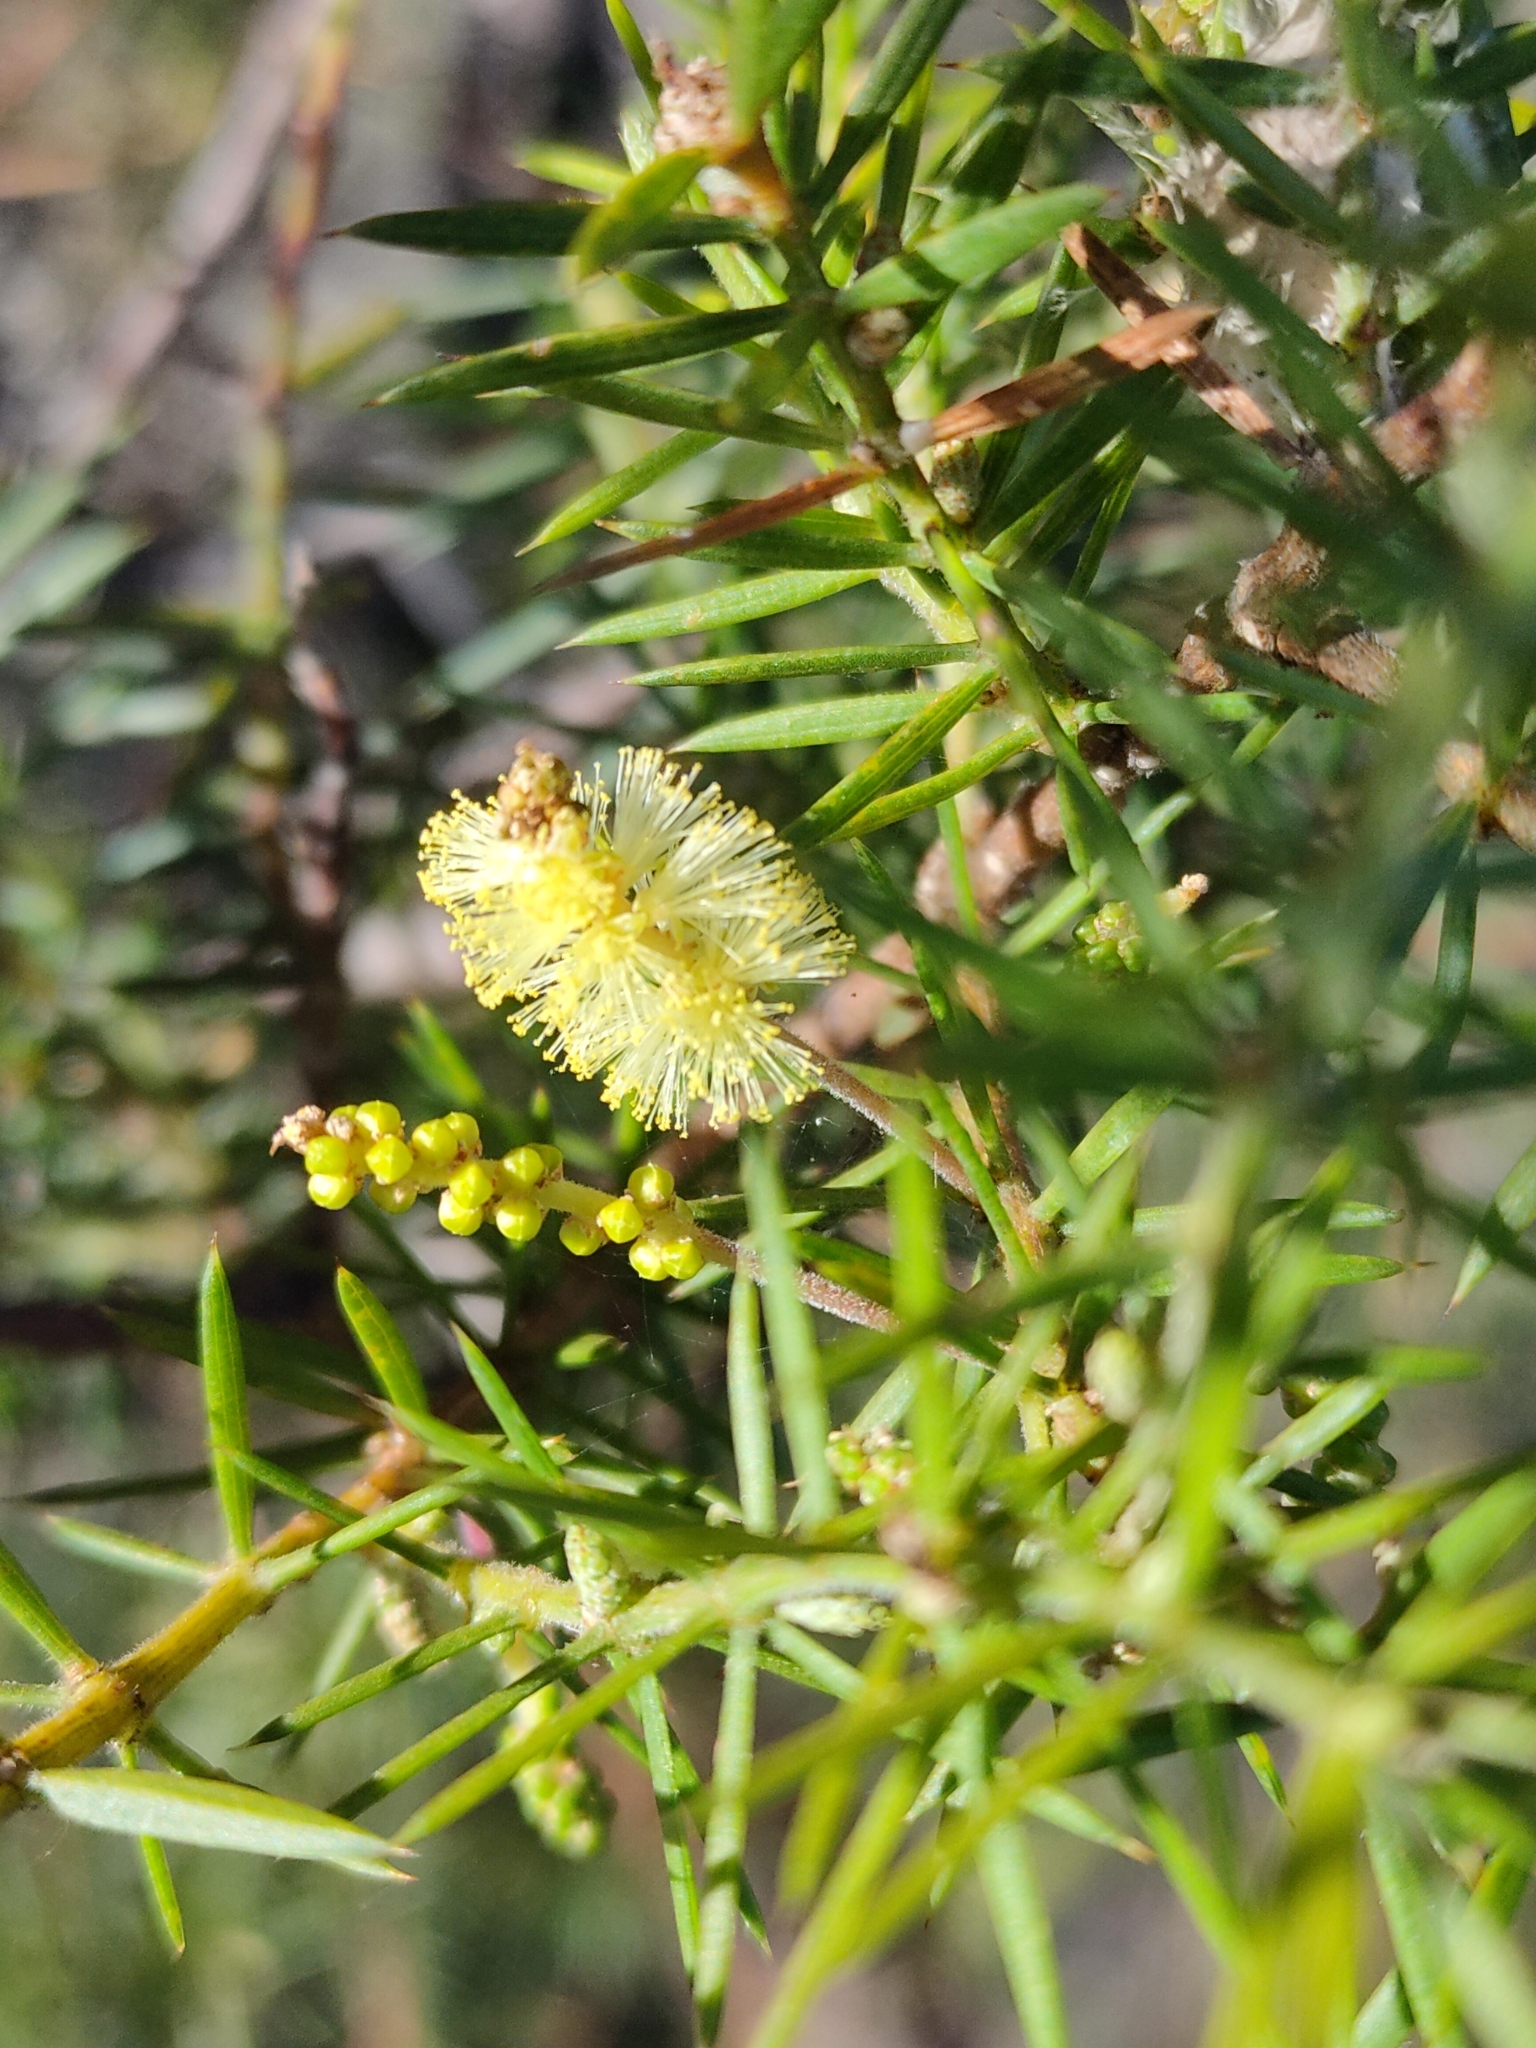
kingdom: Plantae
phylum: Tracheophyta
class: Magnoliopsida
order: Fabales
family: Fabaceae
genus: Acacia
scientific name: Acacia verticillata
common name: Prickly moses
